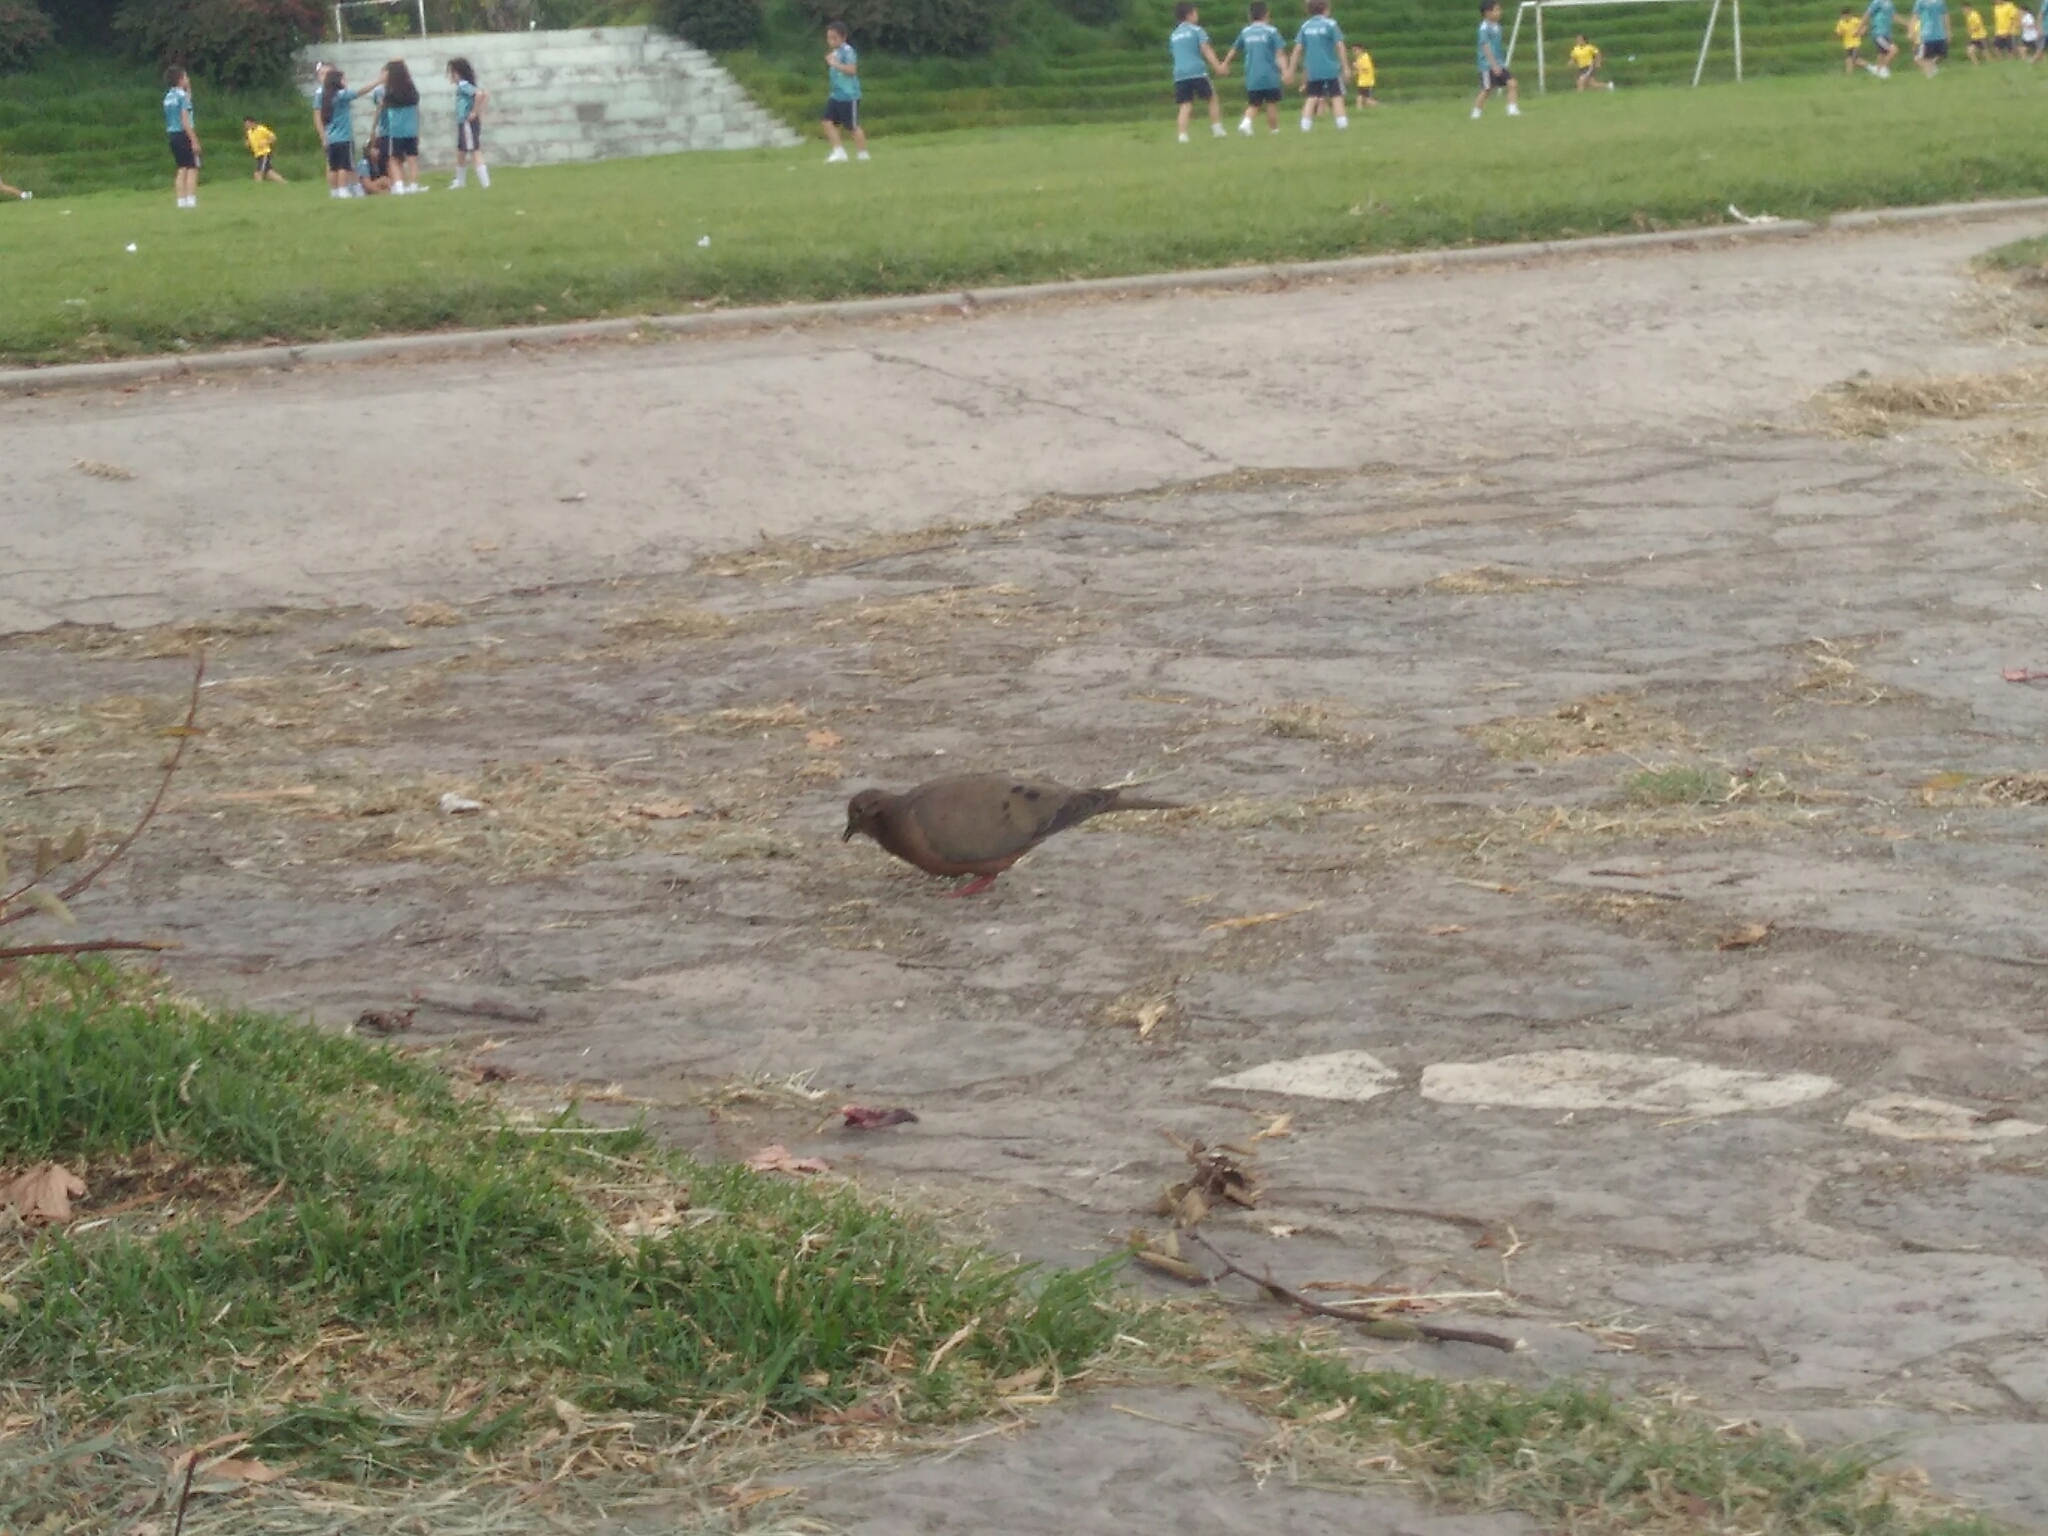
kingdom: Animalia
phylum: Chordata
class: Aves
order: Columbiformes
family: Columbidae
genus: Zenaida
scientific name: Zenaida auriculata
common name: Eared dove
